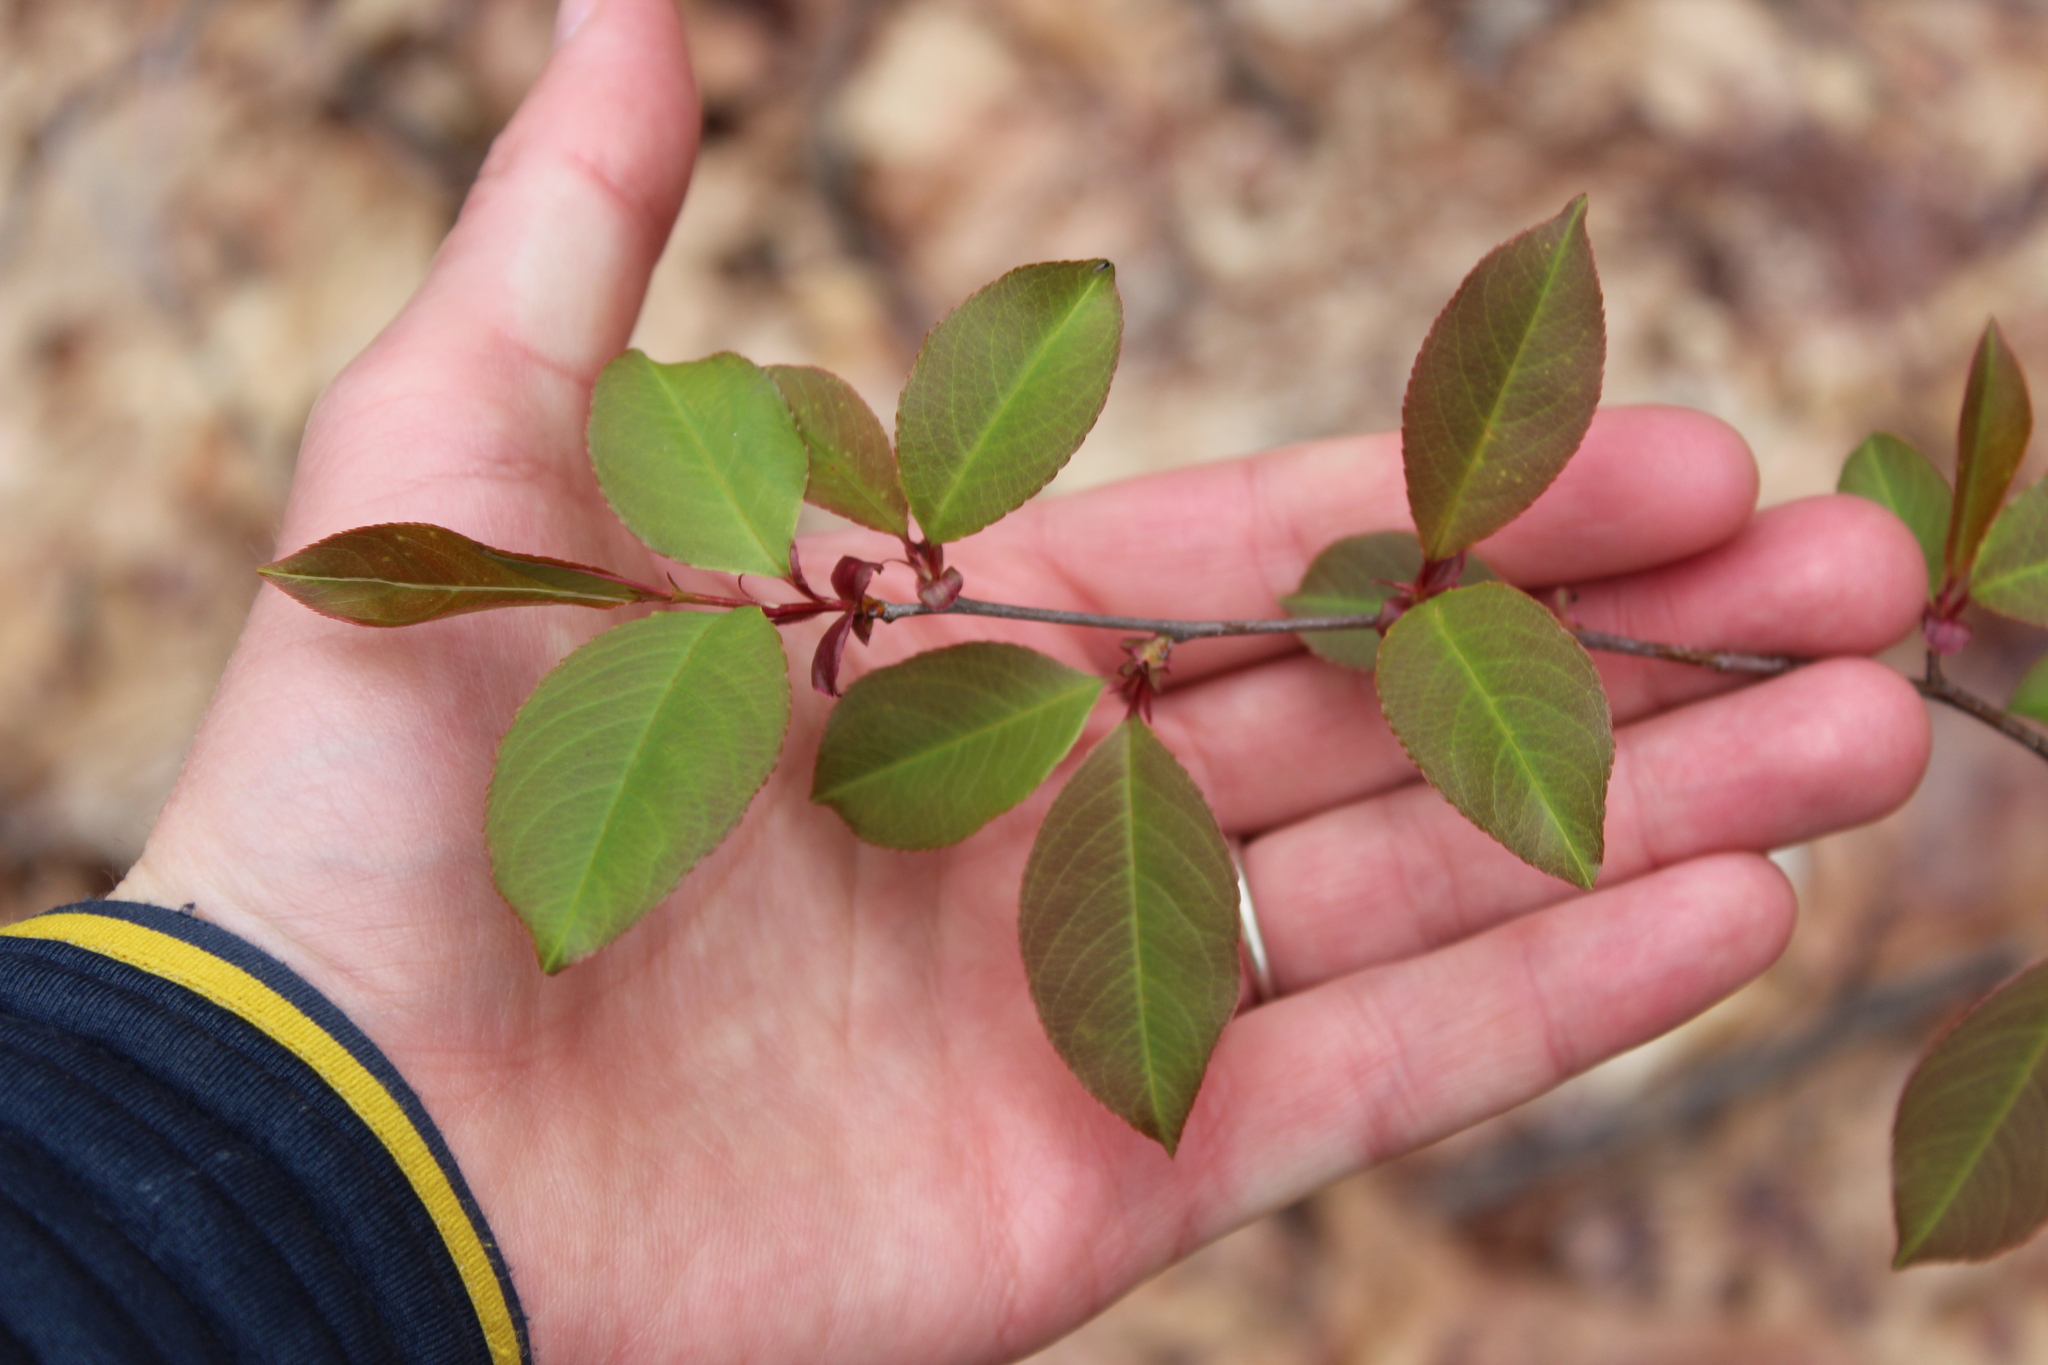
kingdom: Plantae
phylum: Tracheophyta
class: Magnoliopsida
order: Rosales
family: Rosaceae
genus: Prunus
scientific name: Prunus serotina
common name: Black cherry
